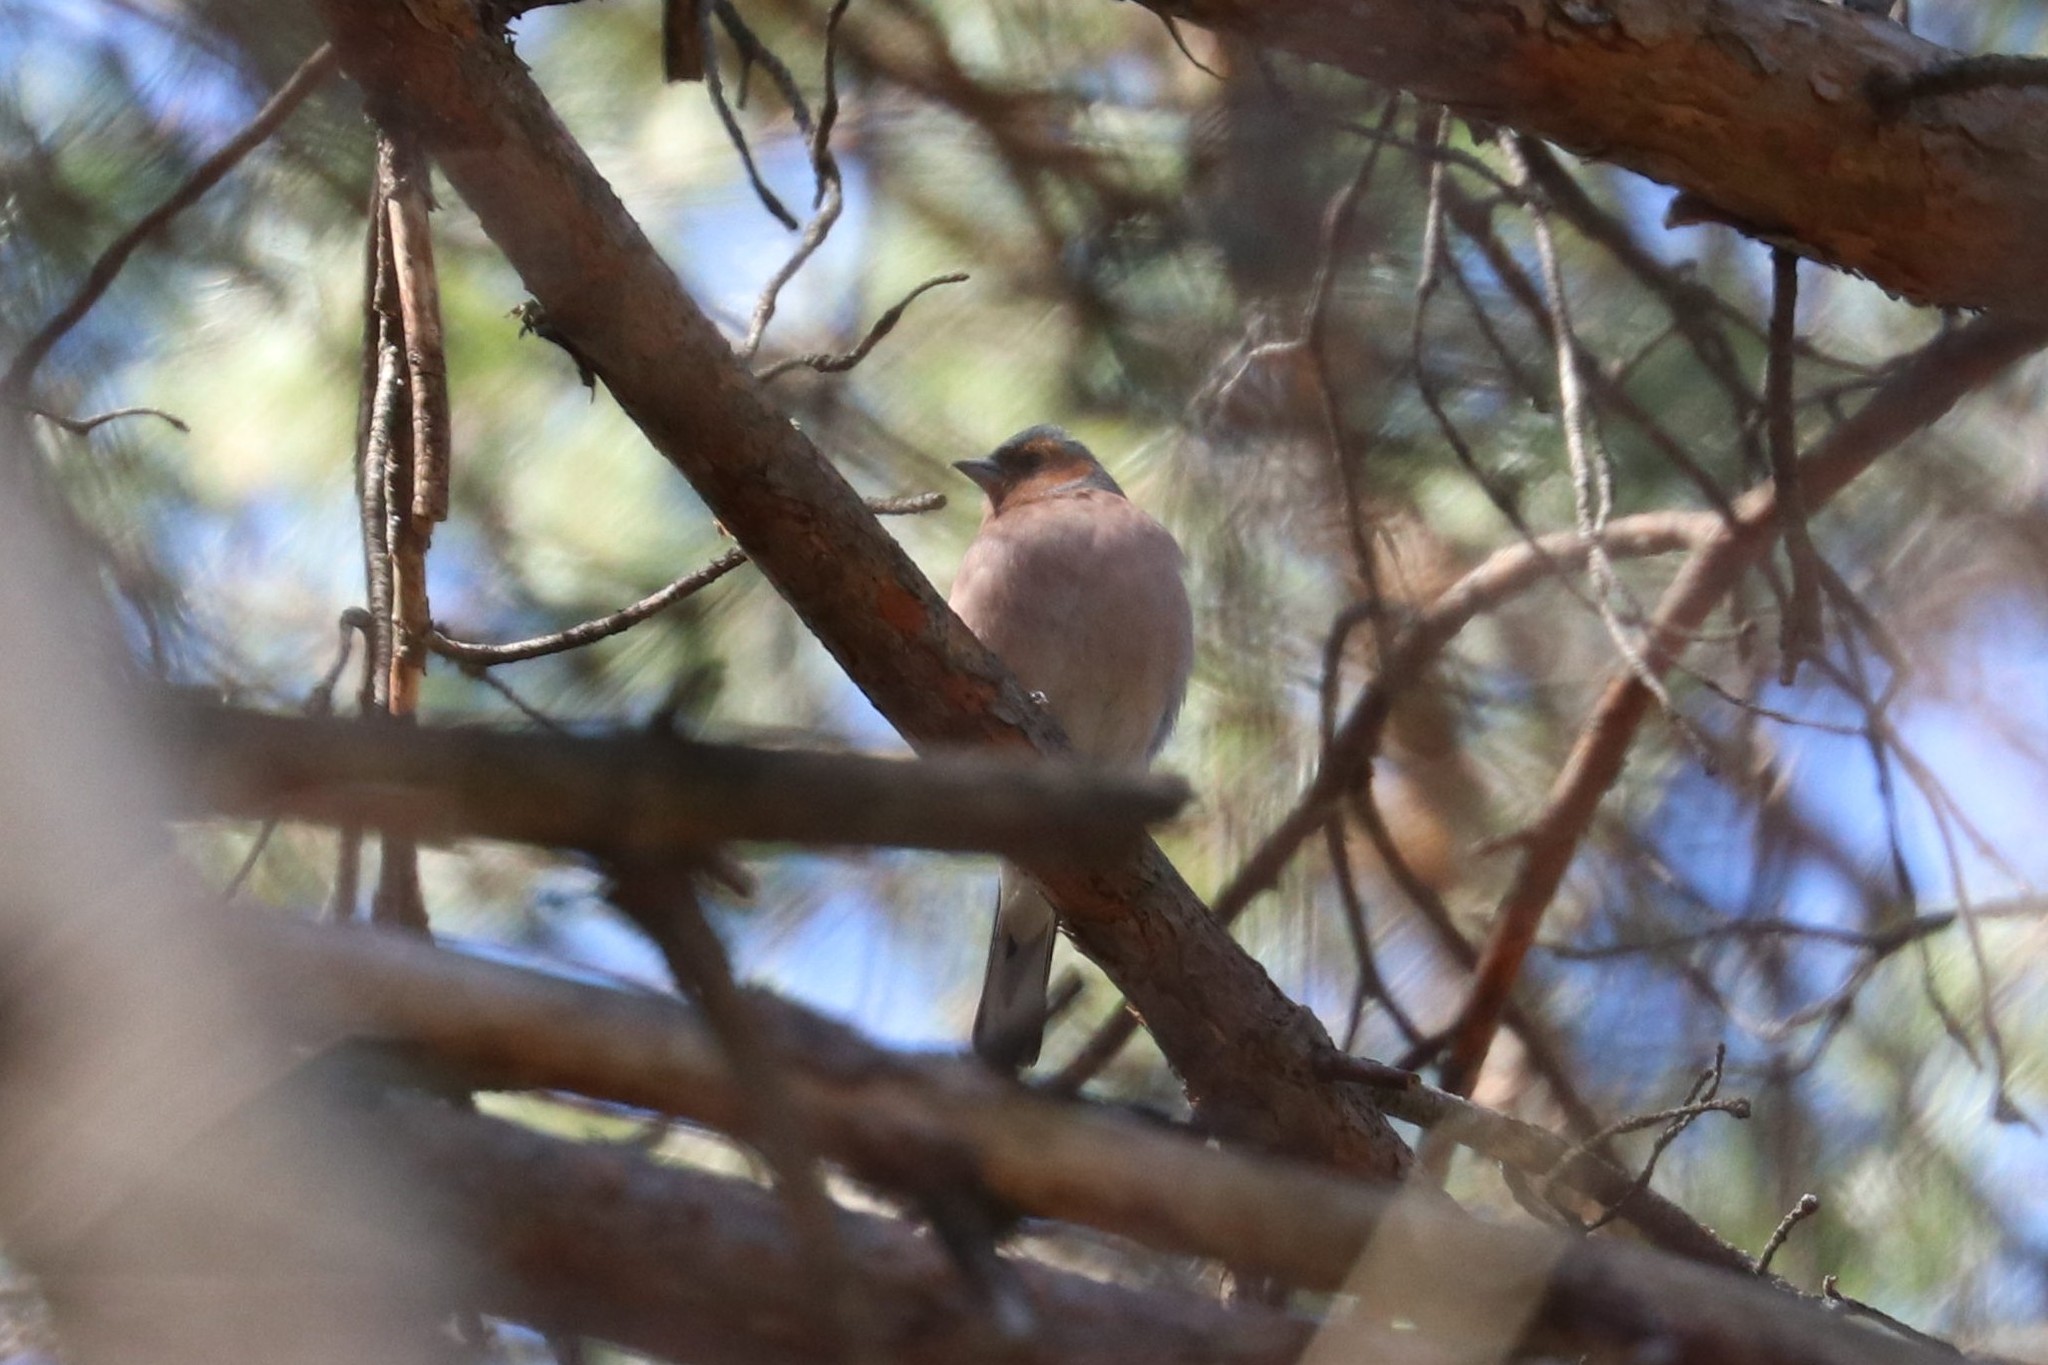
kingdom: Animalia
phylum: Chordata
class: Aves
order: Passeriformes
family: Fringillidae
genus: Fringilla
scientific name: Fringilla coelebs
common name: Common chaffinch
